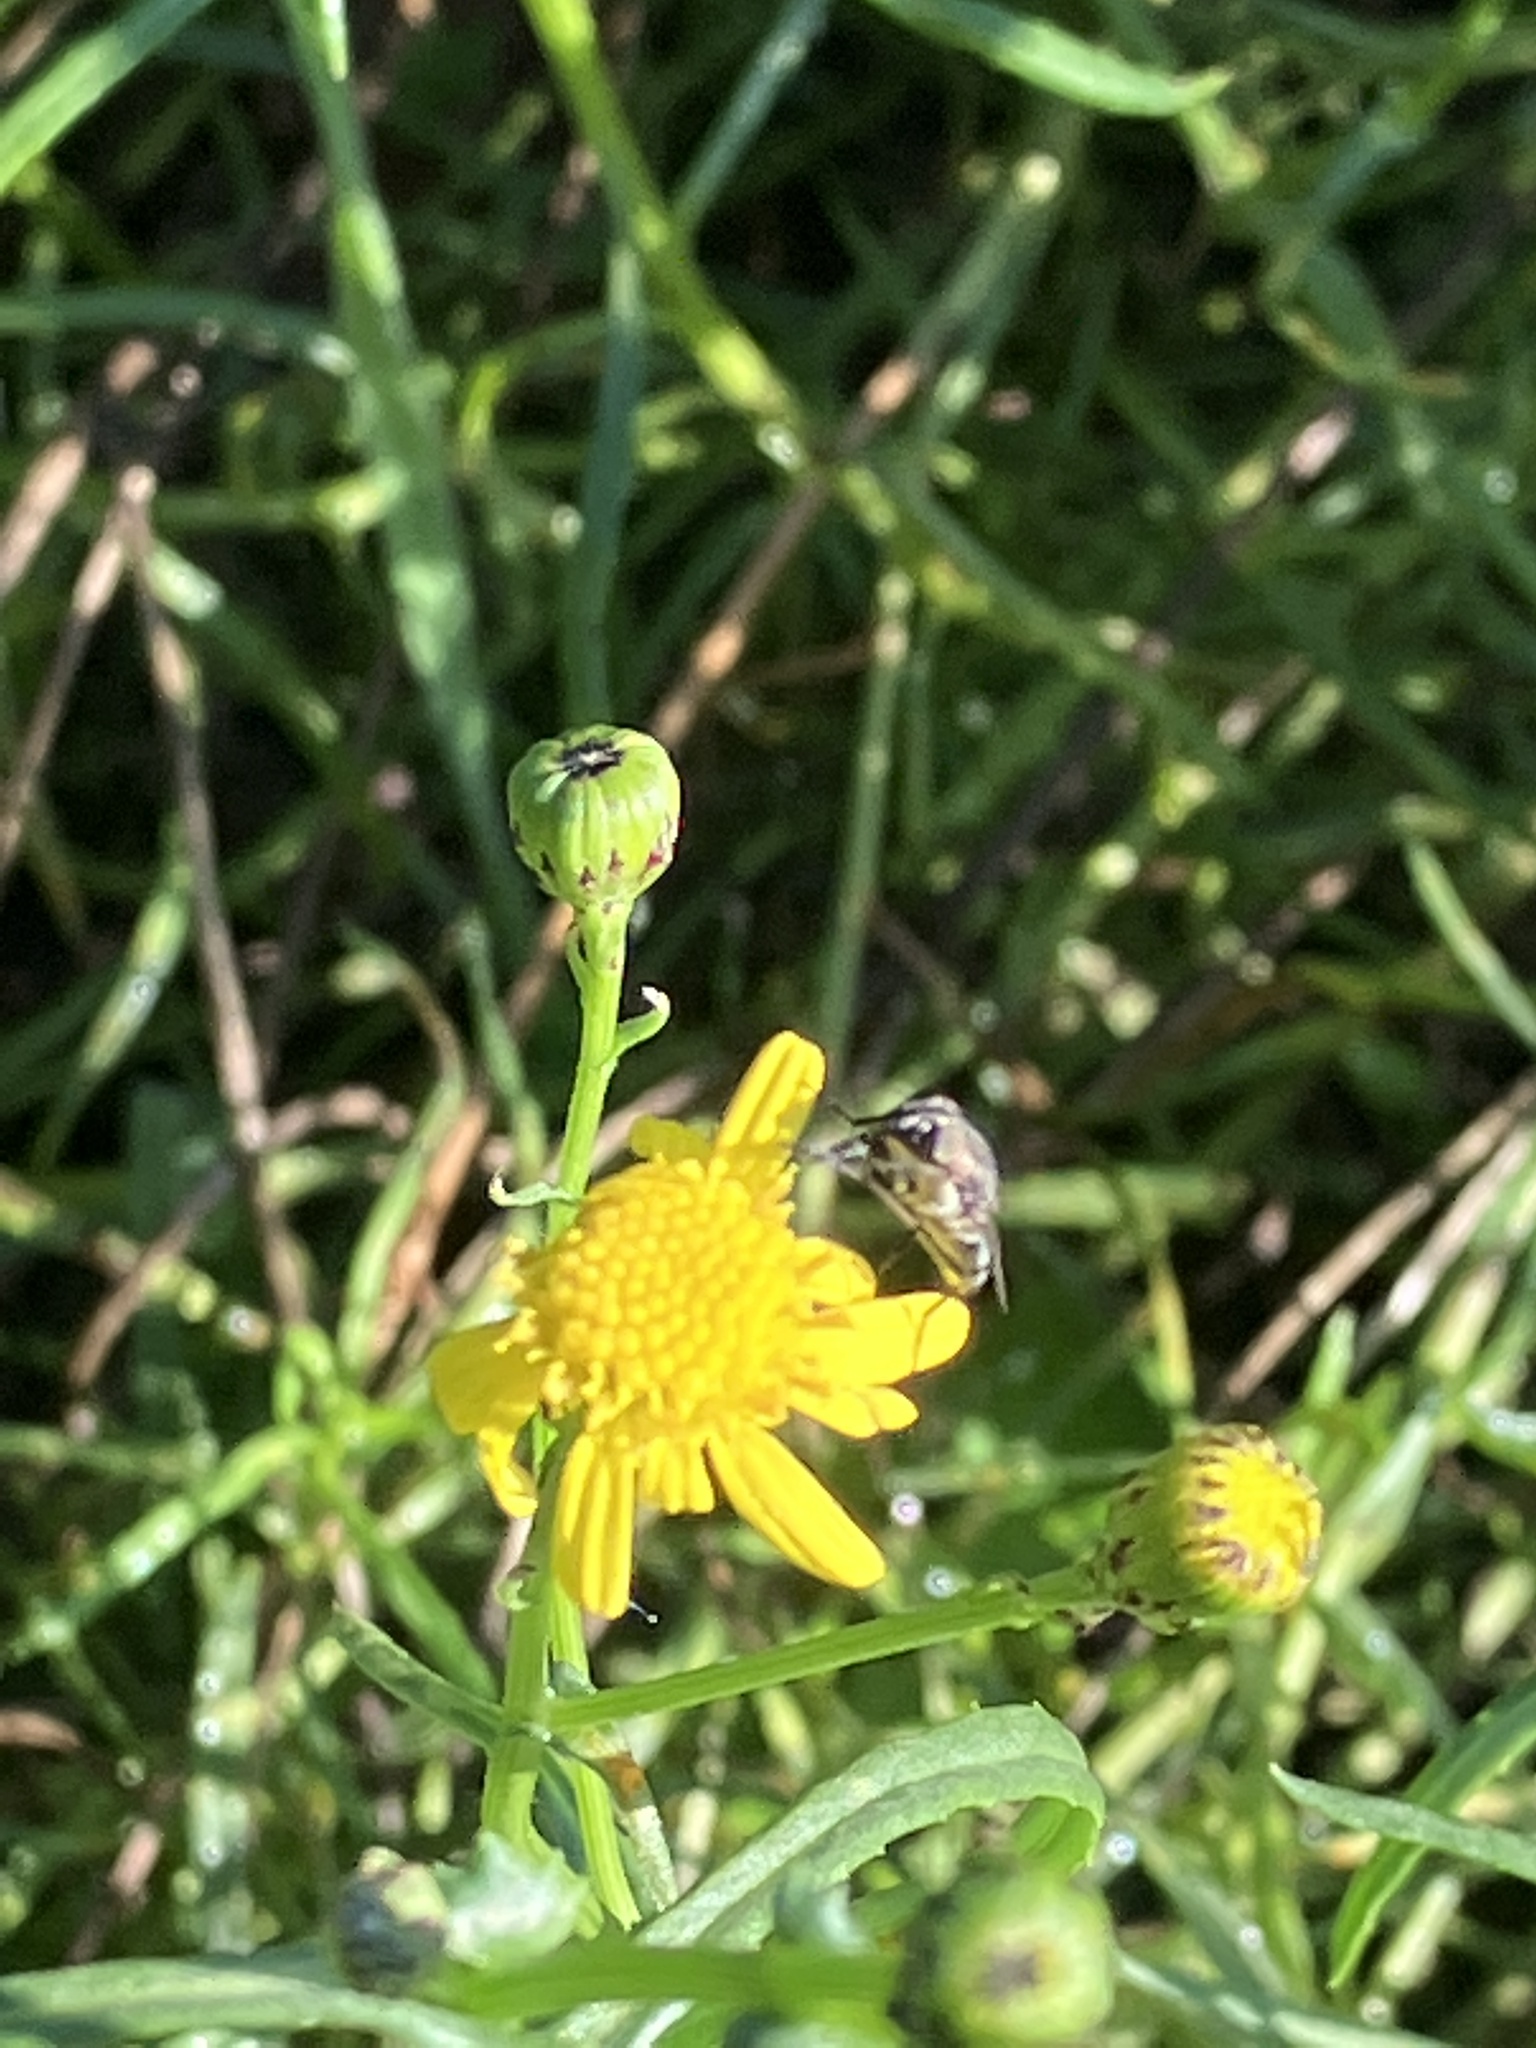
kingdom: Plantae
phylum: Tracheophyta
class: Magnoliopsida
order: Asterales
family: Asteraceae
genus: Senecio
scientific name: Senecio inaequidens
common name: Narrow-leaved ragwort
